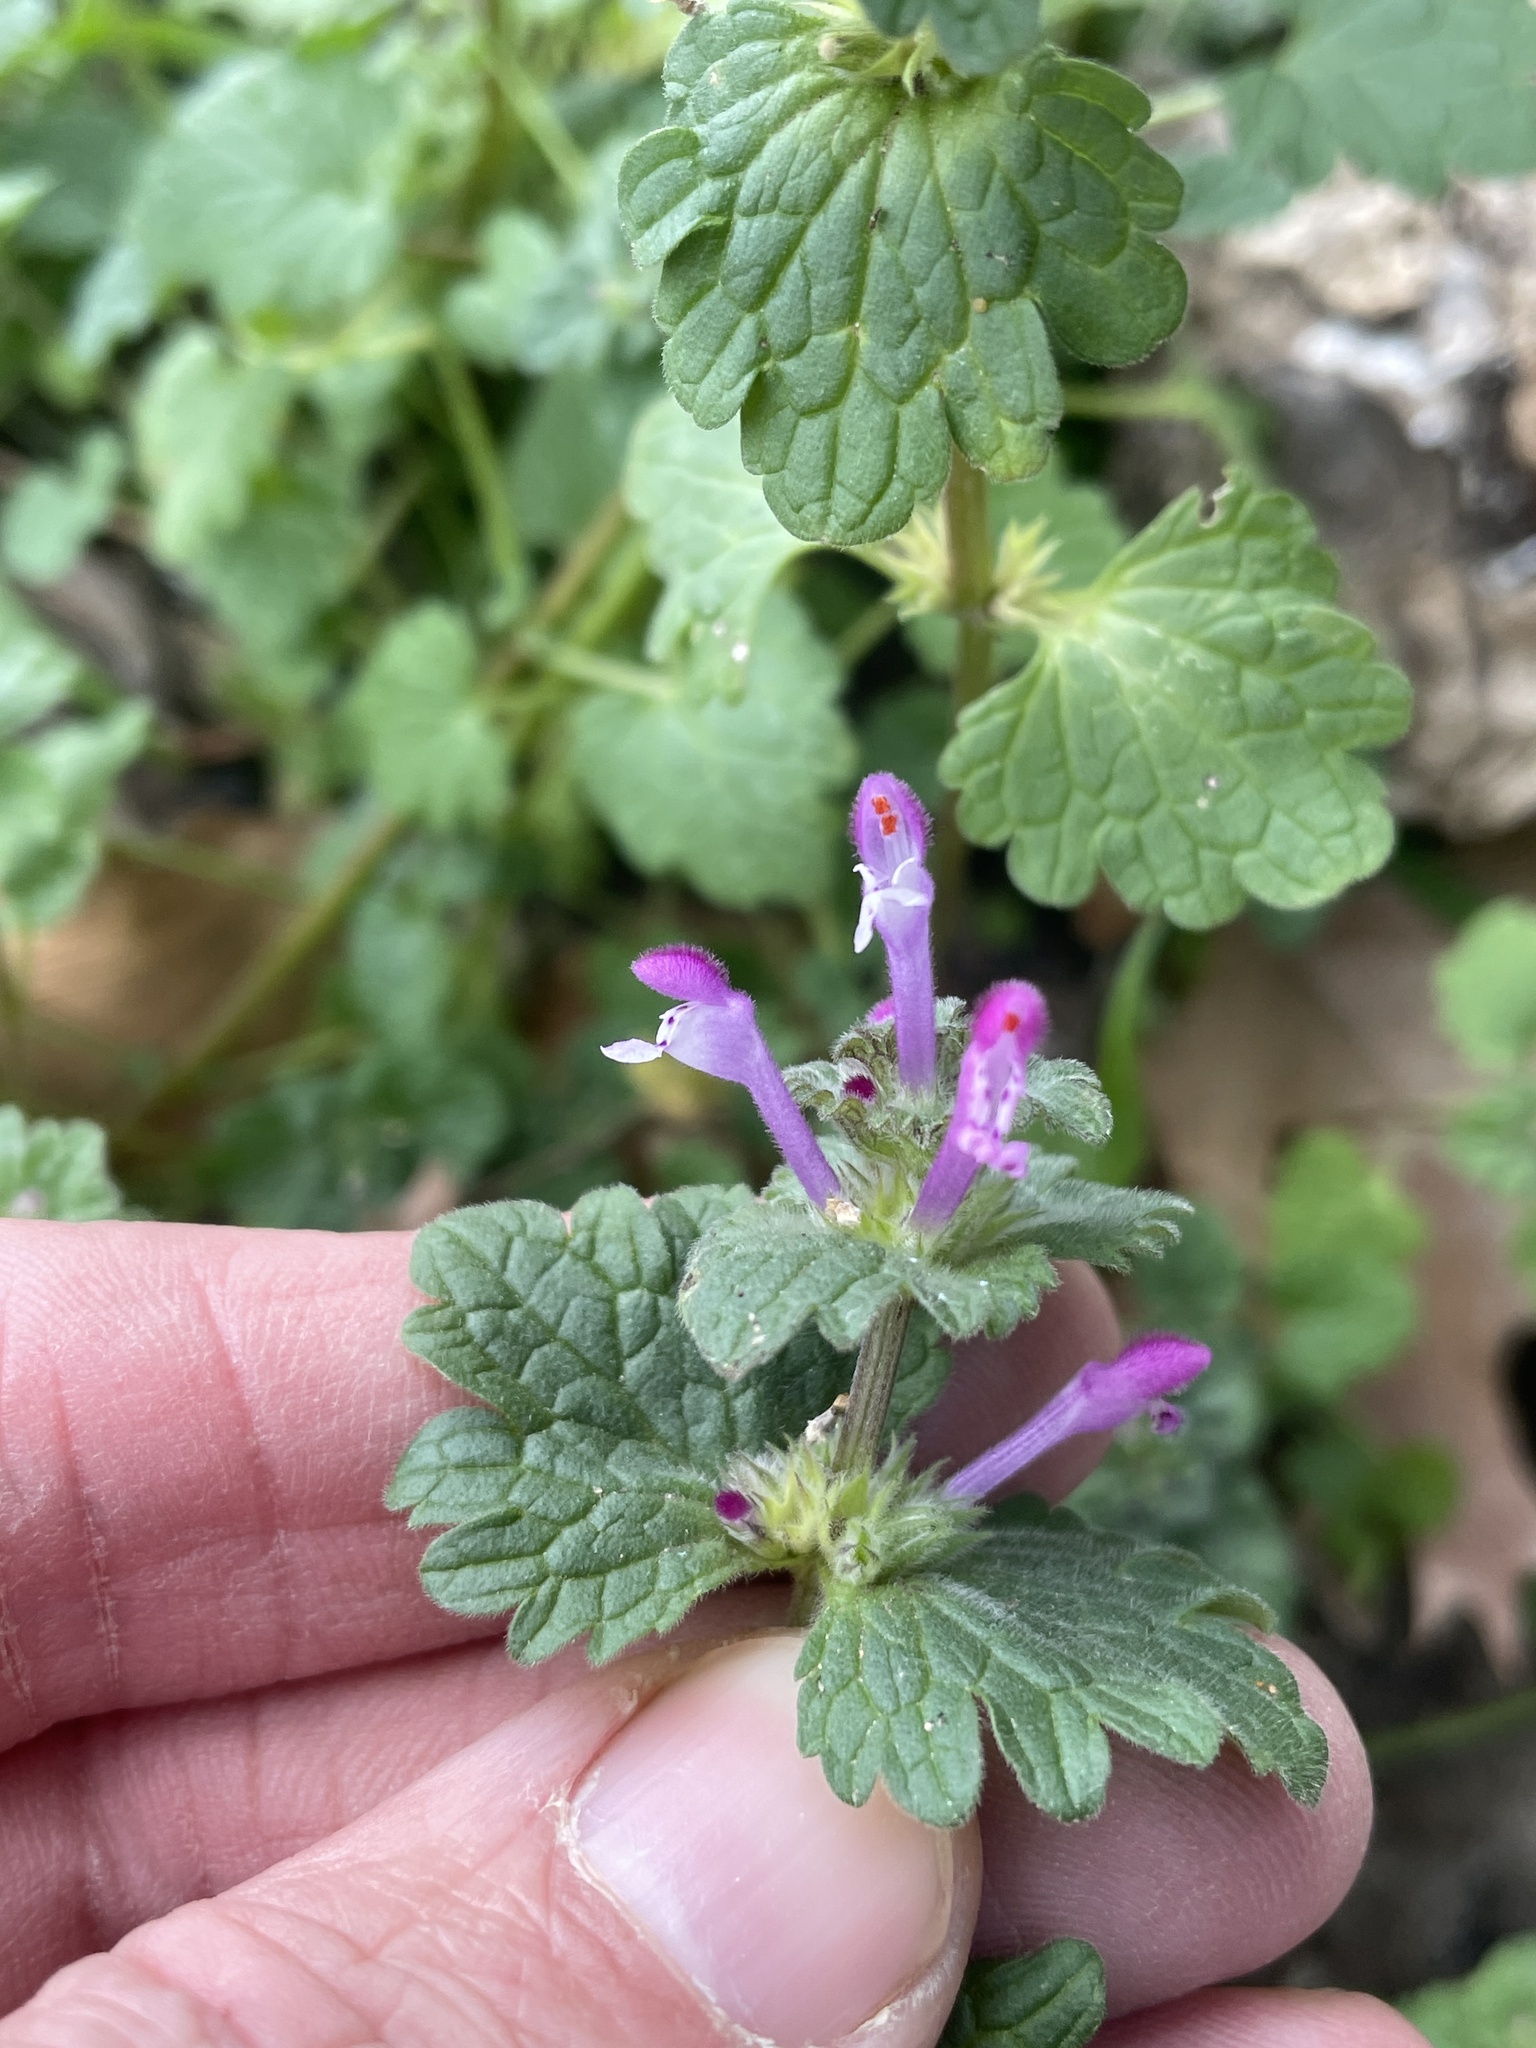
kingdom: Plantae
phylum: Tracheophyta
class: Magnoliopsida
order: Lamiales
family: Lamiaceae
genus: Lamium
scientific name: Lamium amplexicaule
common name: Henbit dead-nettle
